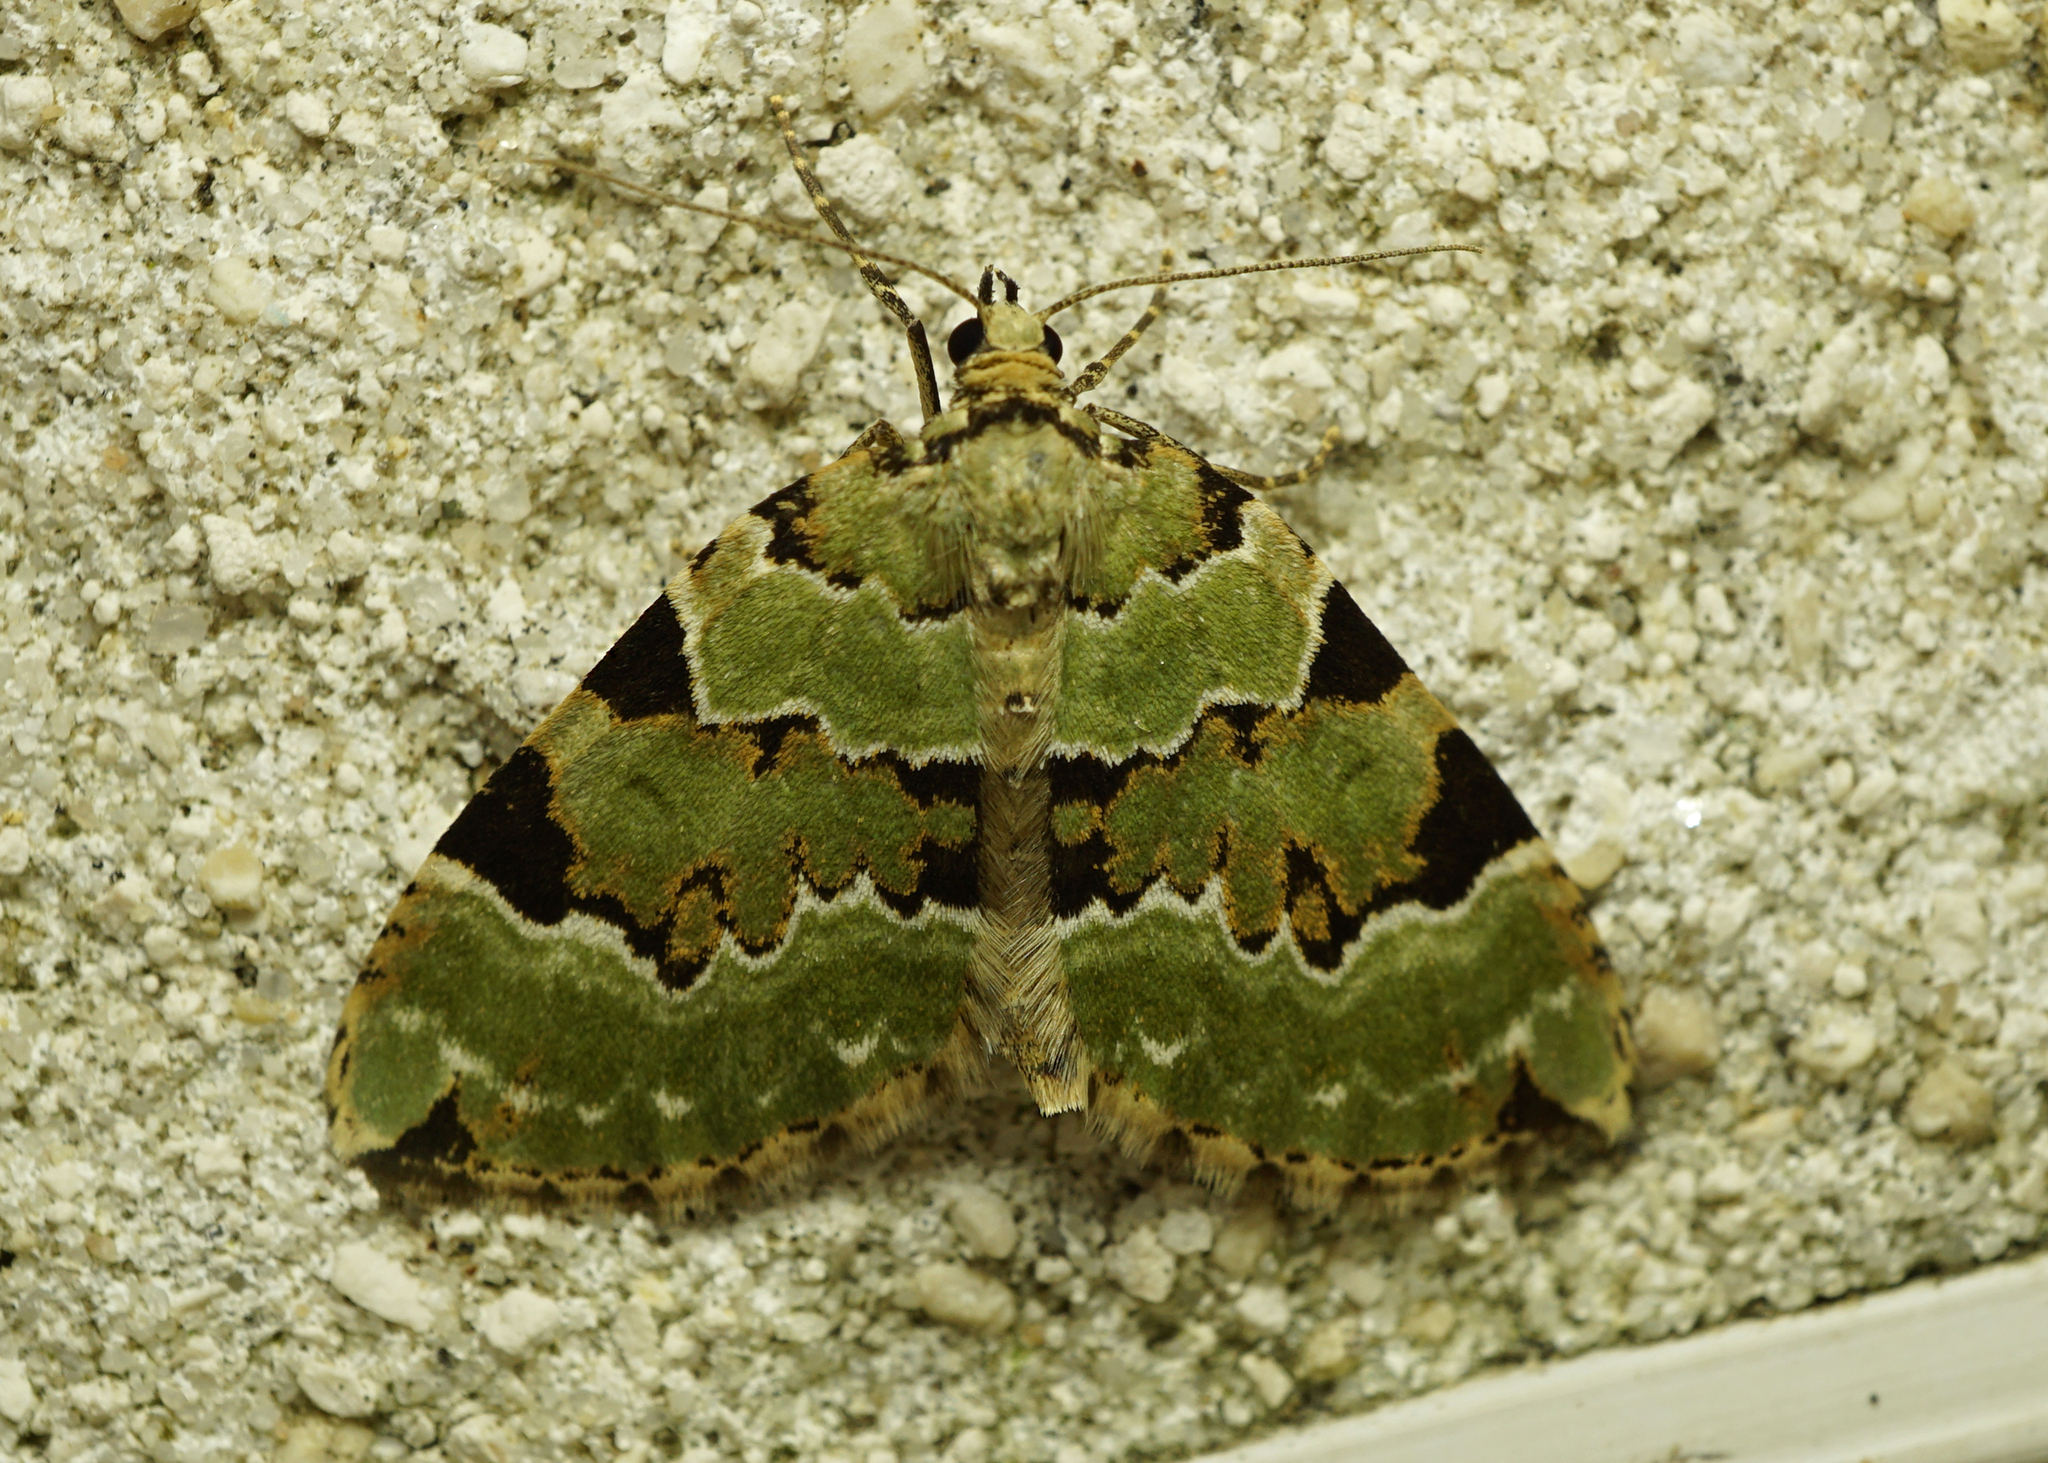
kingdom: Animalia
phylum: Arthropoda
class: Insecta
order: Lepidoptera
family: Geometridae
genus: Colostygia
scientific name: Colostygia pectinataria
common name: Green carpet
